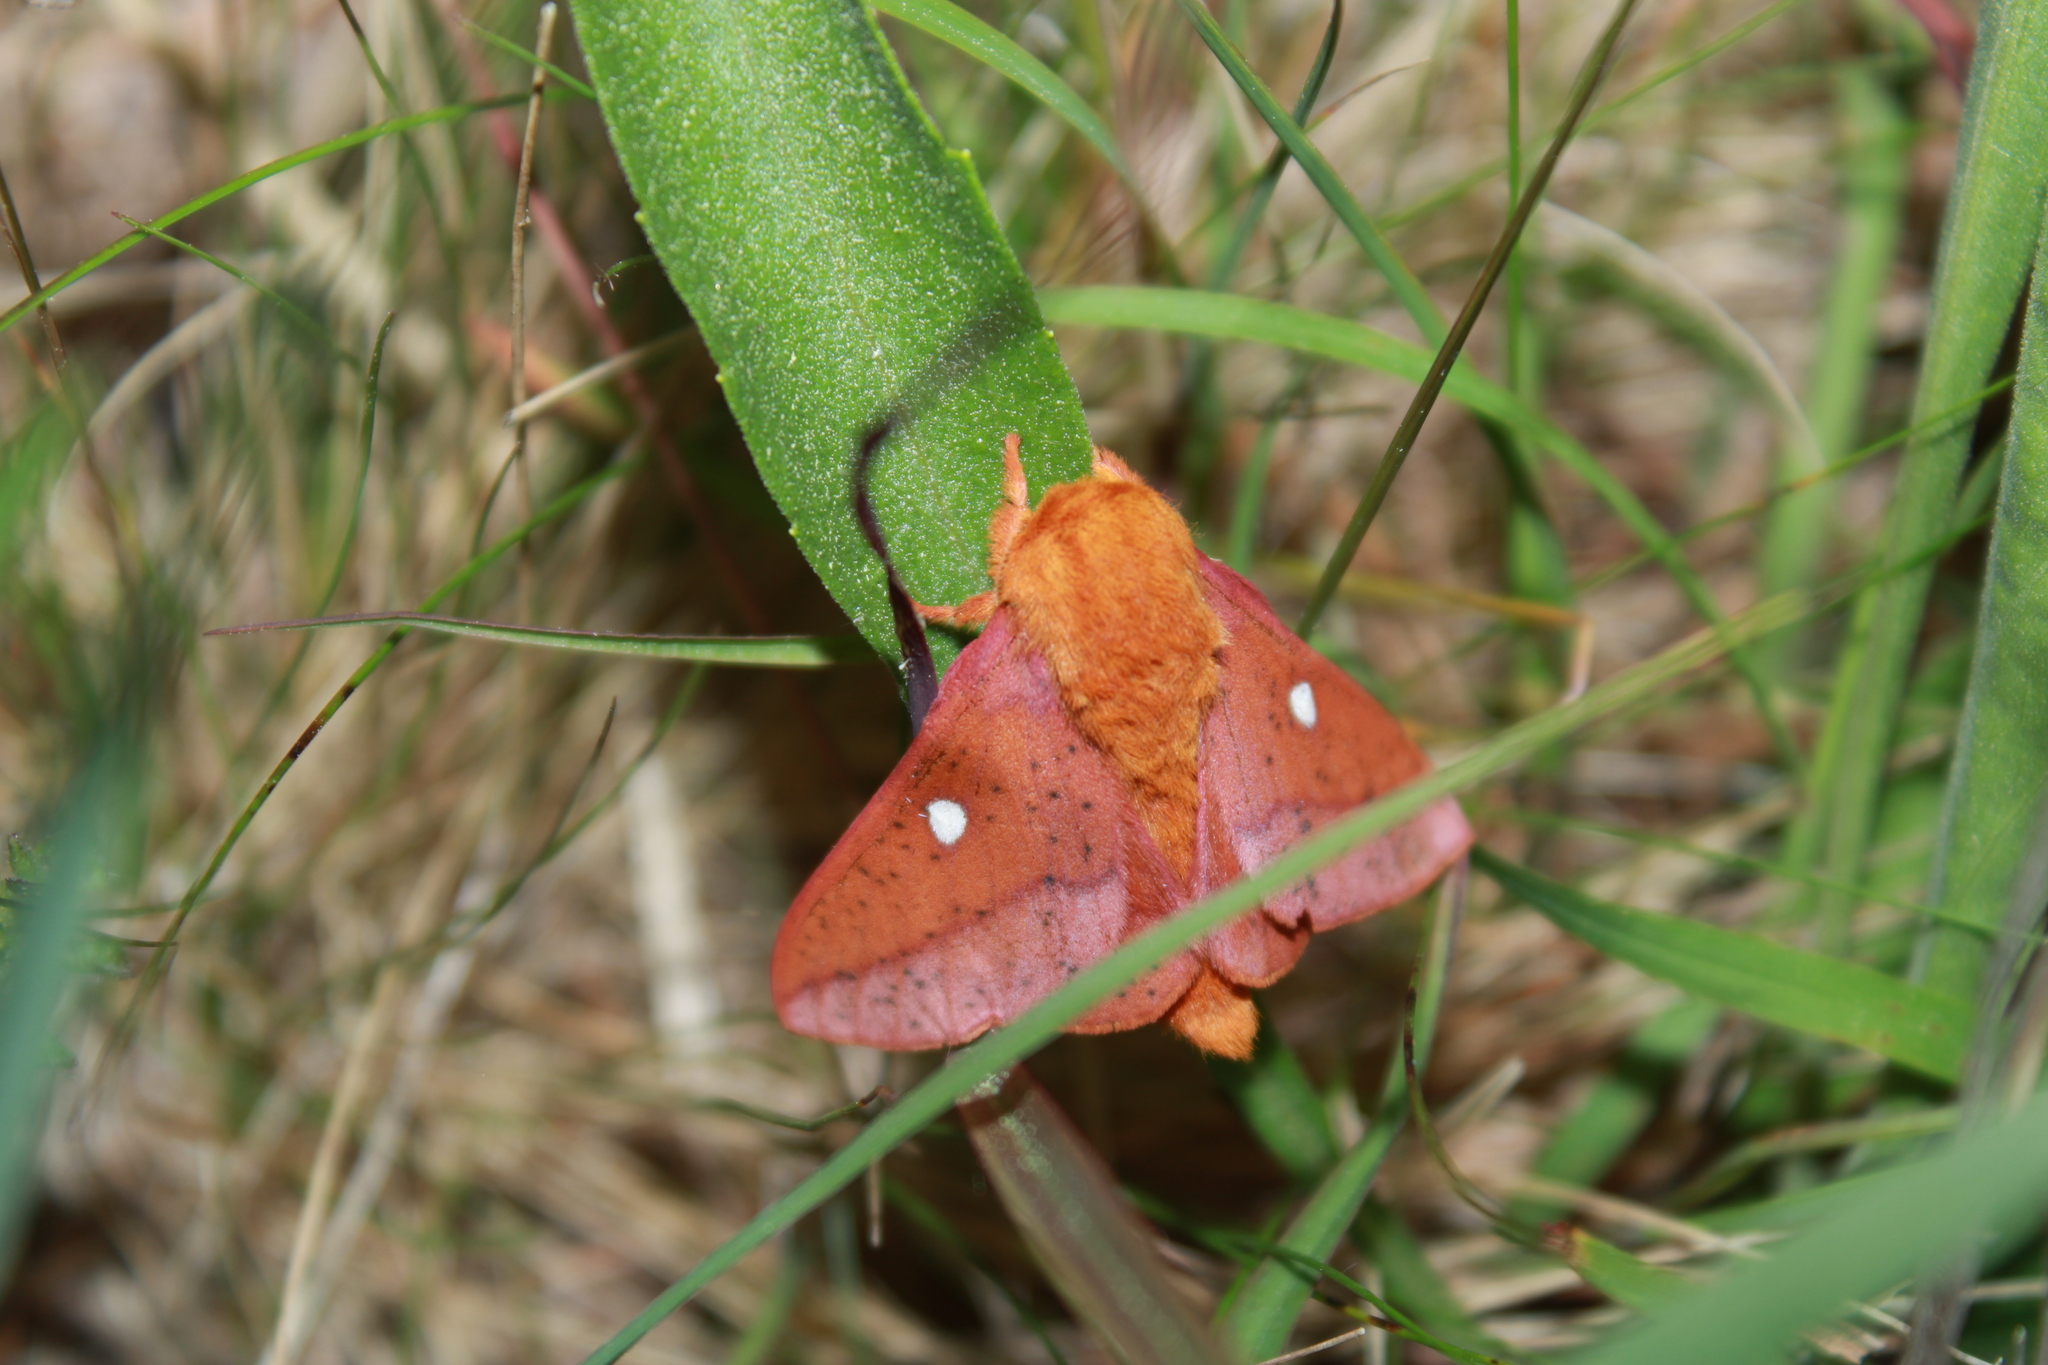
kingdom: Animalia
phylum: Arthropoda
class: Insecta
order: Lepidoptera
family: Saturniidae
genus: Anisota
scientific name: Anisota stigma
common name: Spiny oakworm moth
